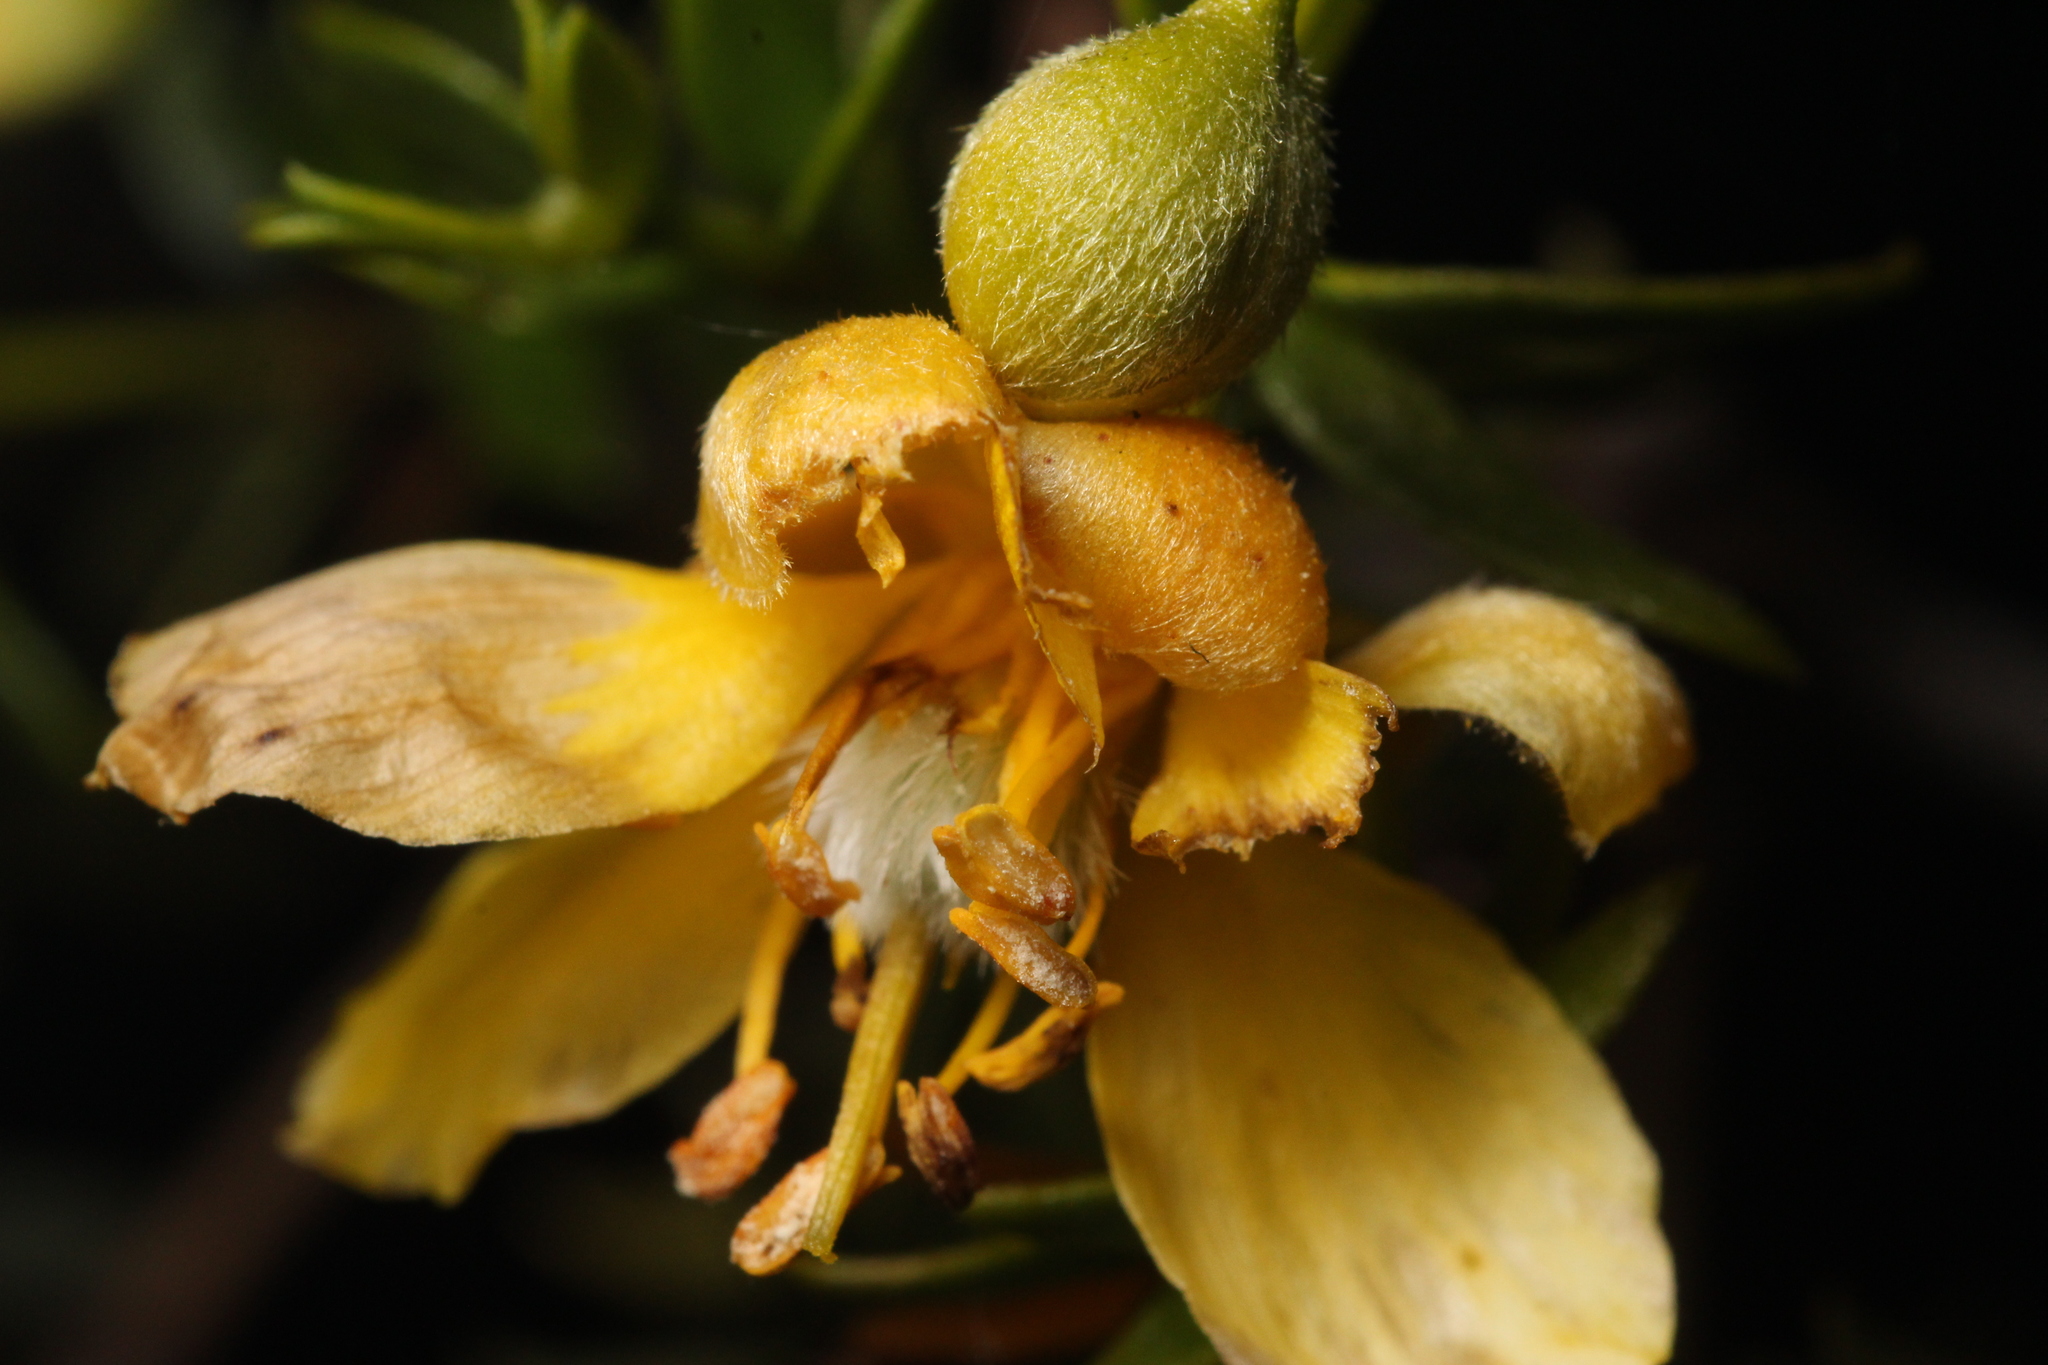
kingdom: Plantae
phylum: Tracheophyta
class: Magnoliopsida
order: Zygophyllales
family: Zygophyllaceae
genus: Larrea
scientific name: Larrea tridentata
